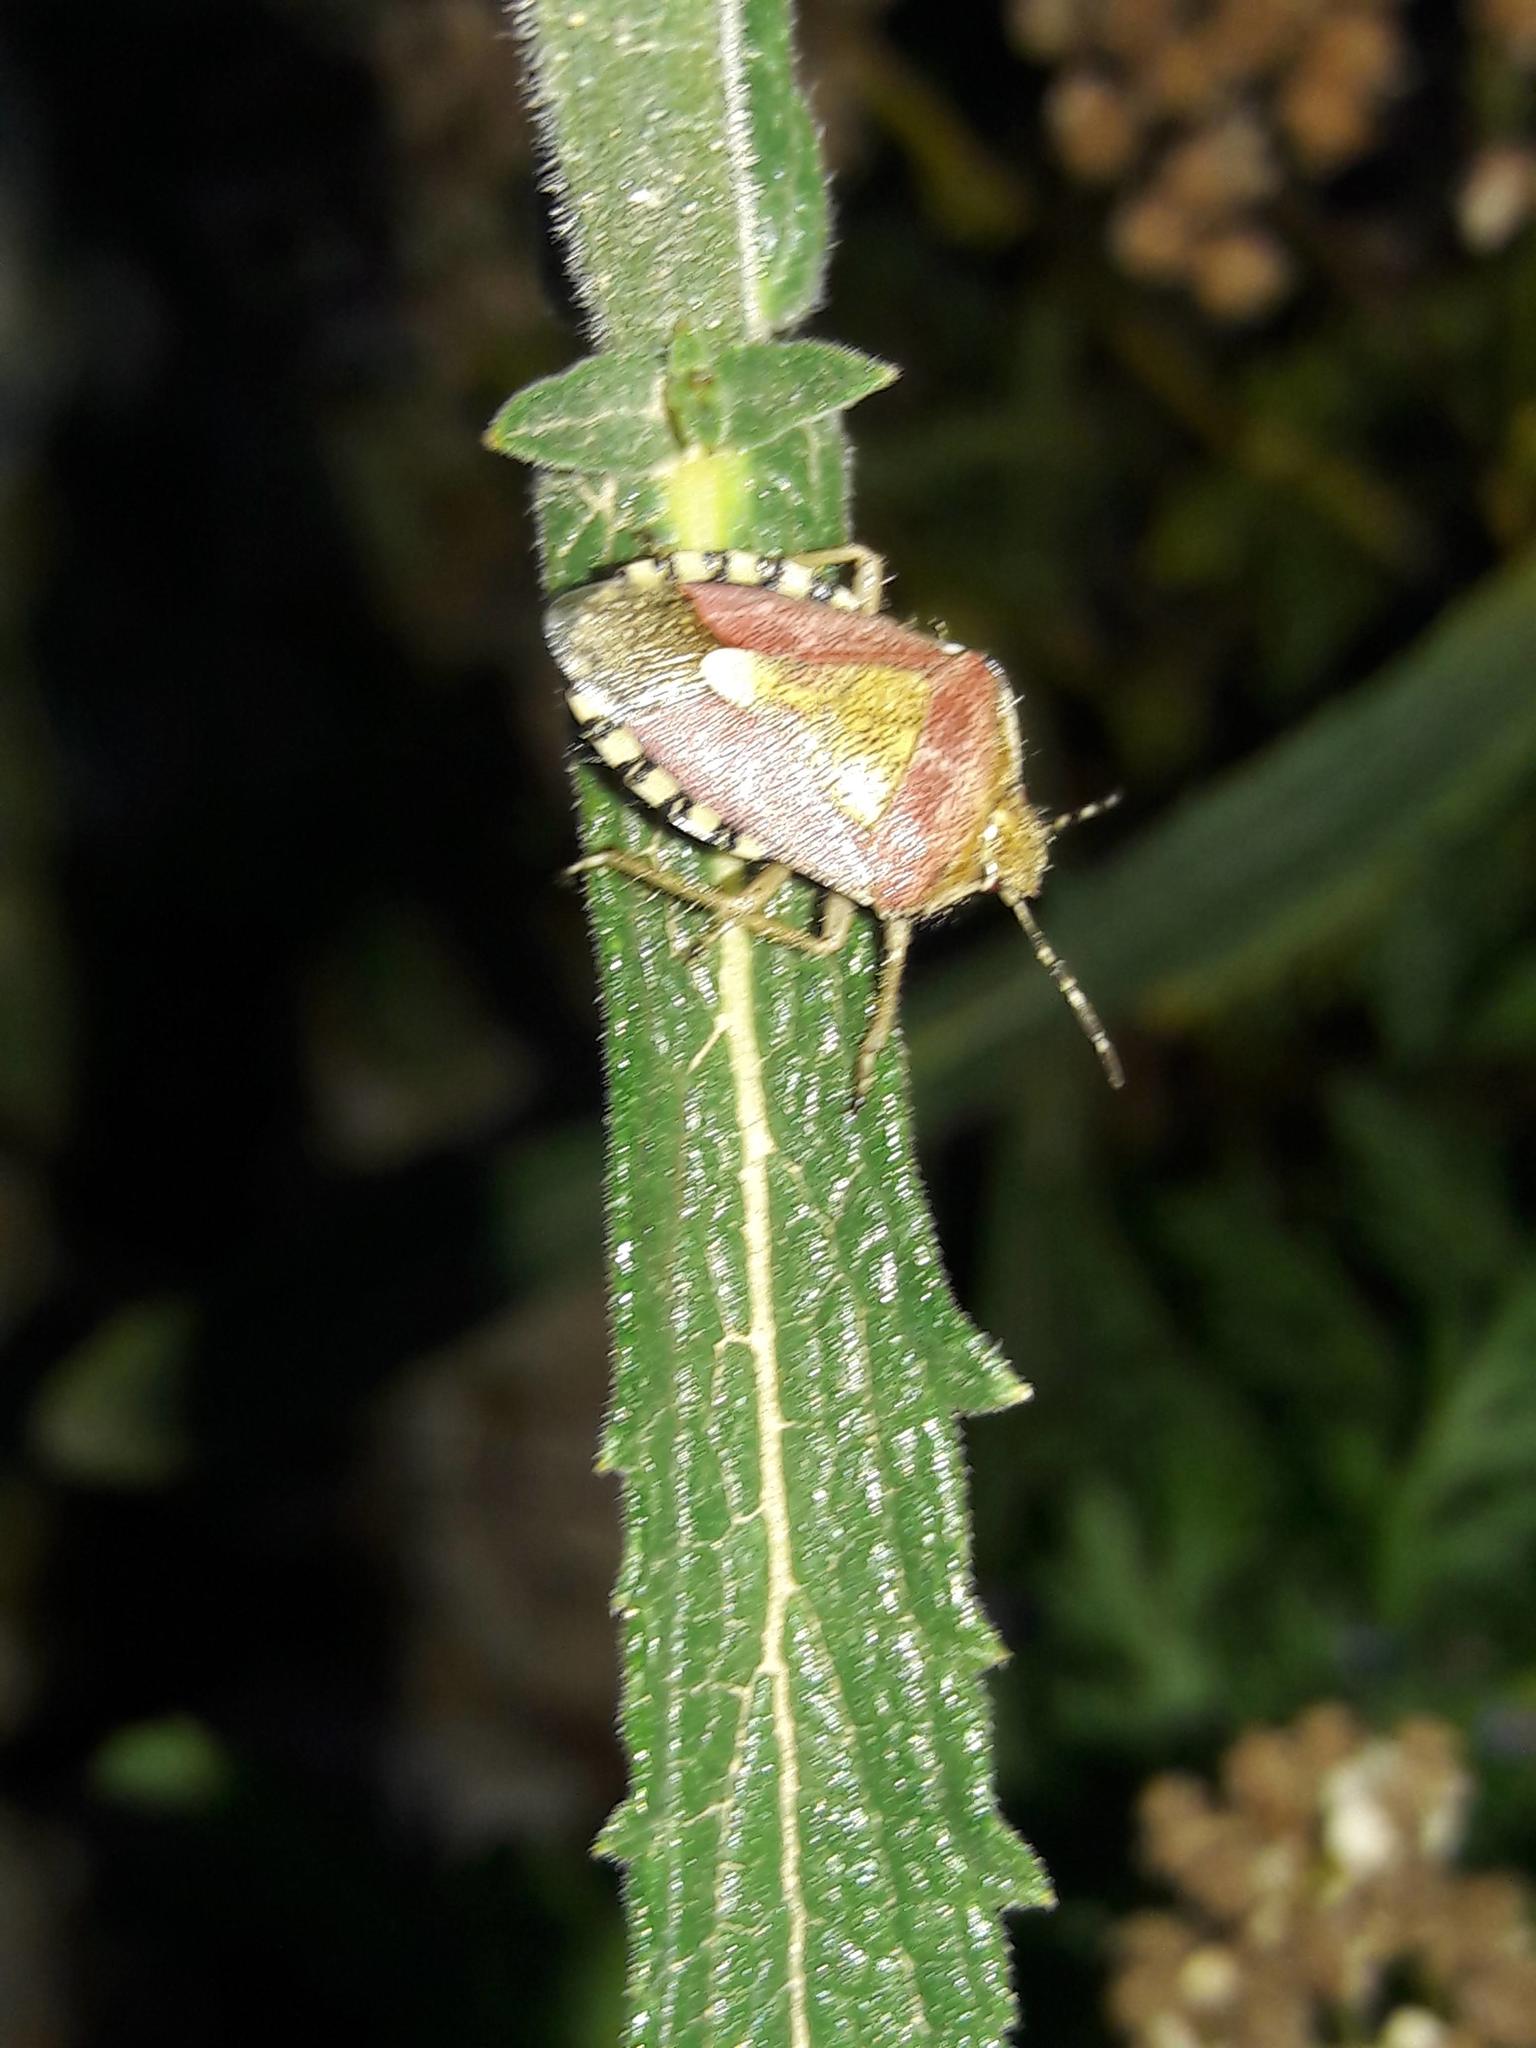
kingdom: Animalia
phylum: Arthropoda
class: Insecta
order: Hemiptera
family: Pentatomidae
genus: Dolycoris
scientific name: Dolycoris baccarum
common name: Sloe bug
